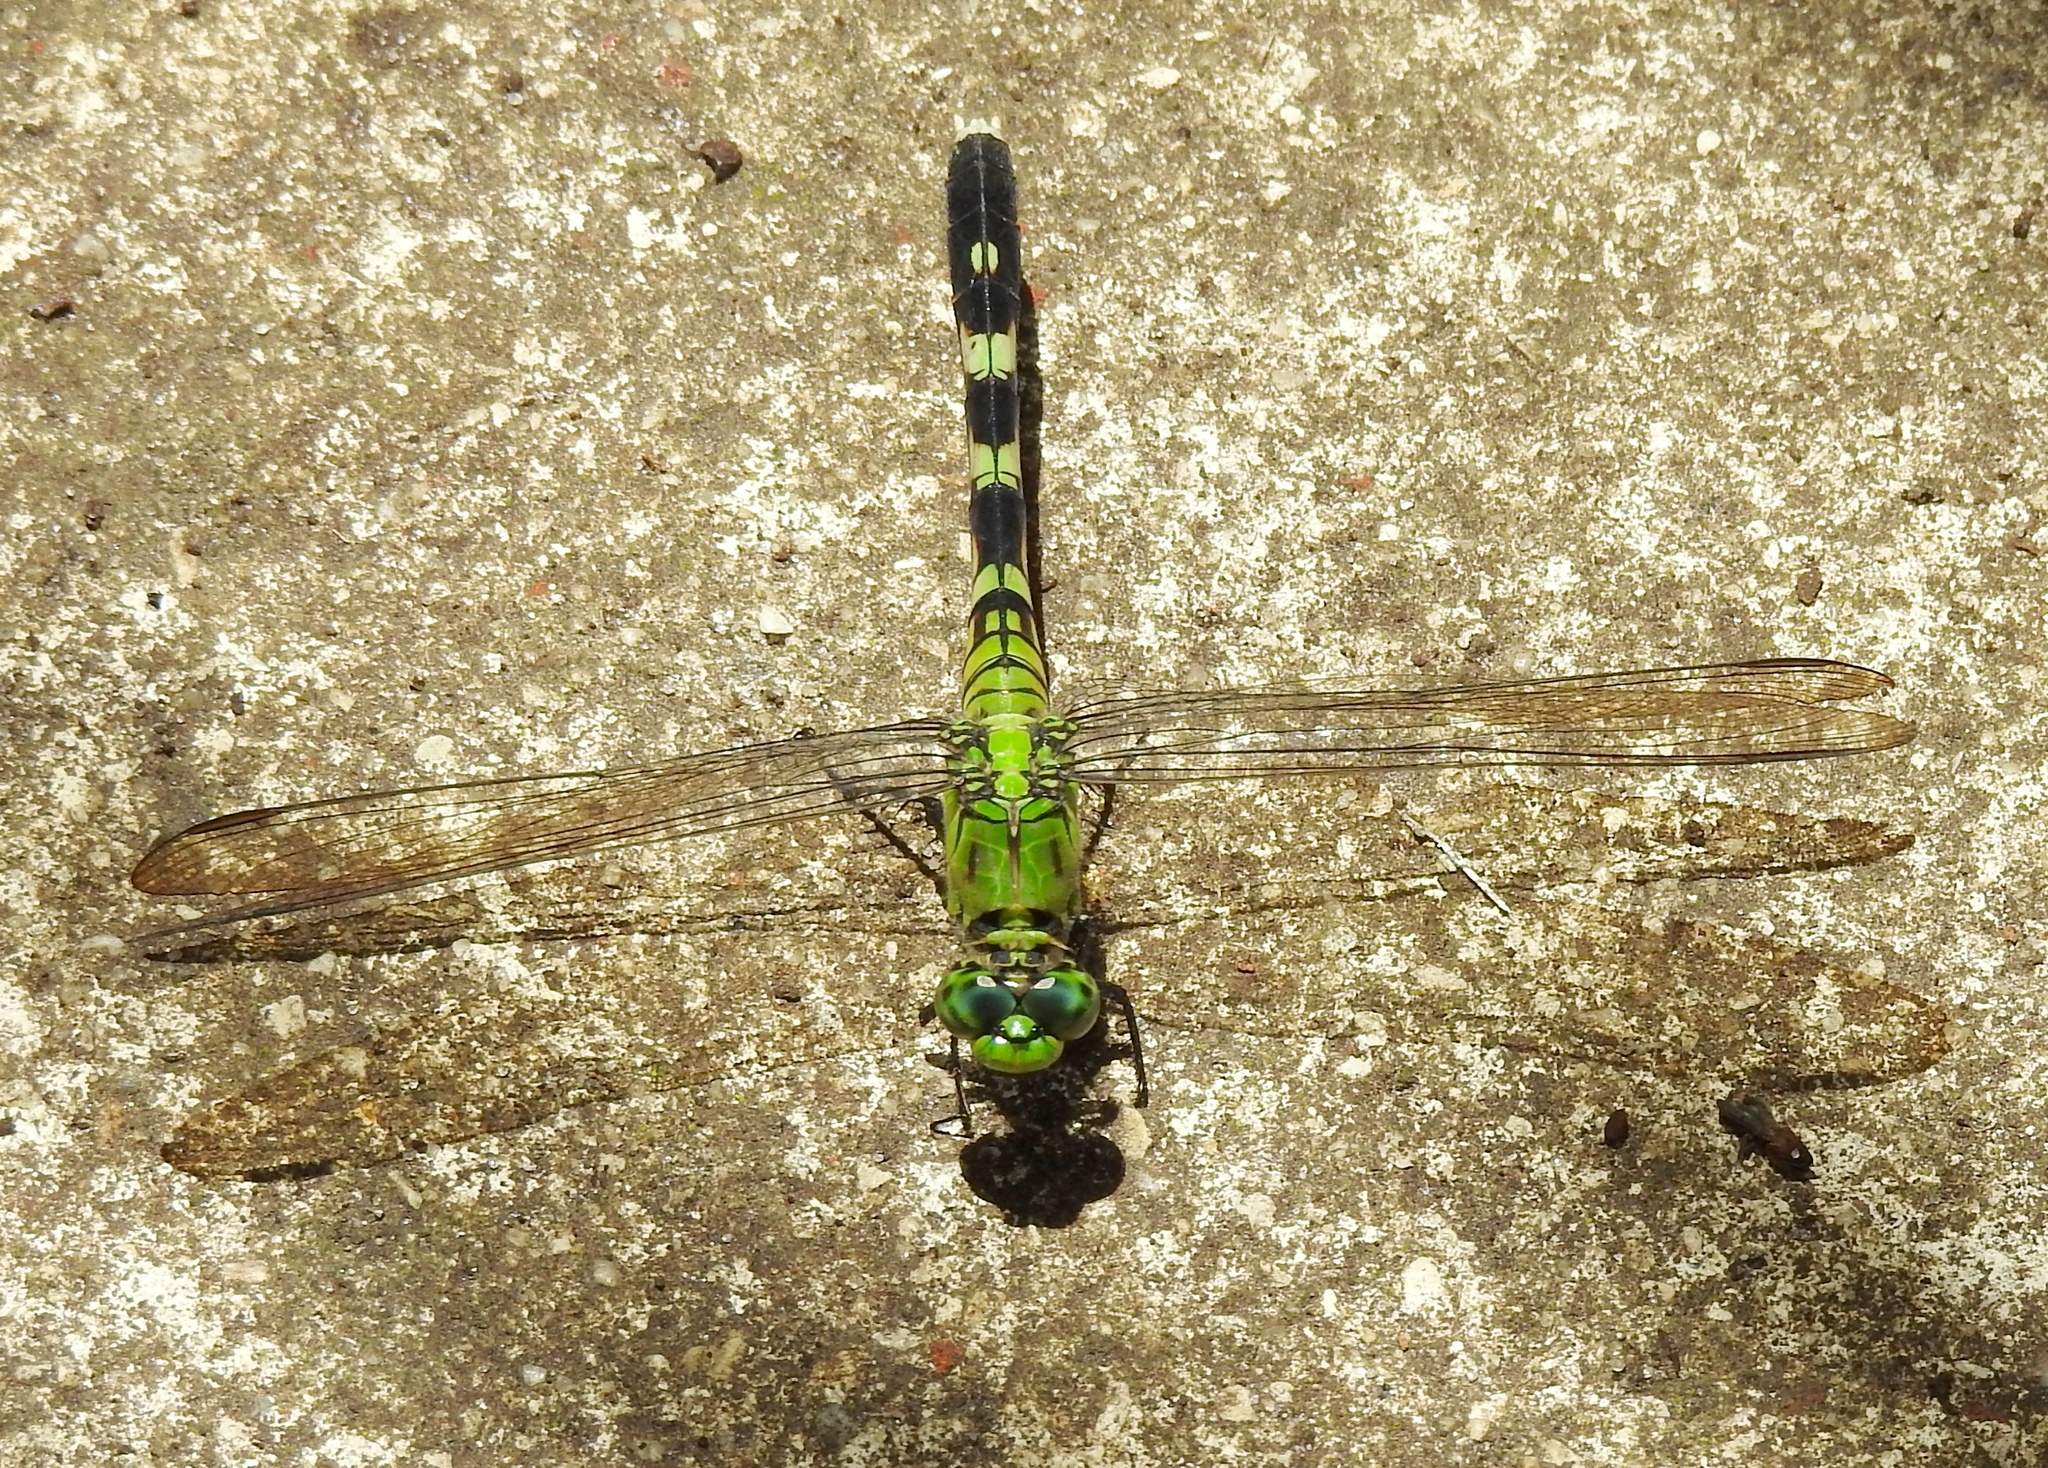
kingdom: Animalia
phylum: Arthropoda
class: Insecta
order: Odonata
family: Libellulidae
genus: Erythemis
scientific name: Erythemis simplicicollis
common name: Eastern pondhawk
